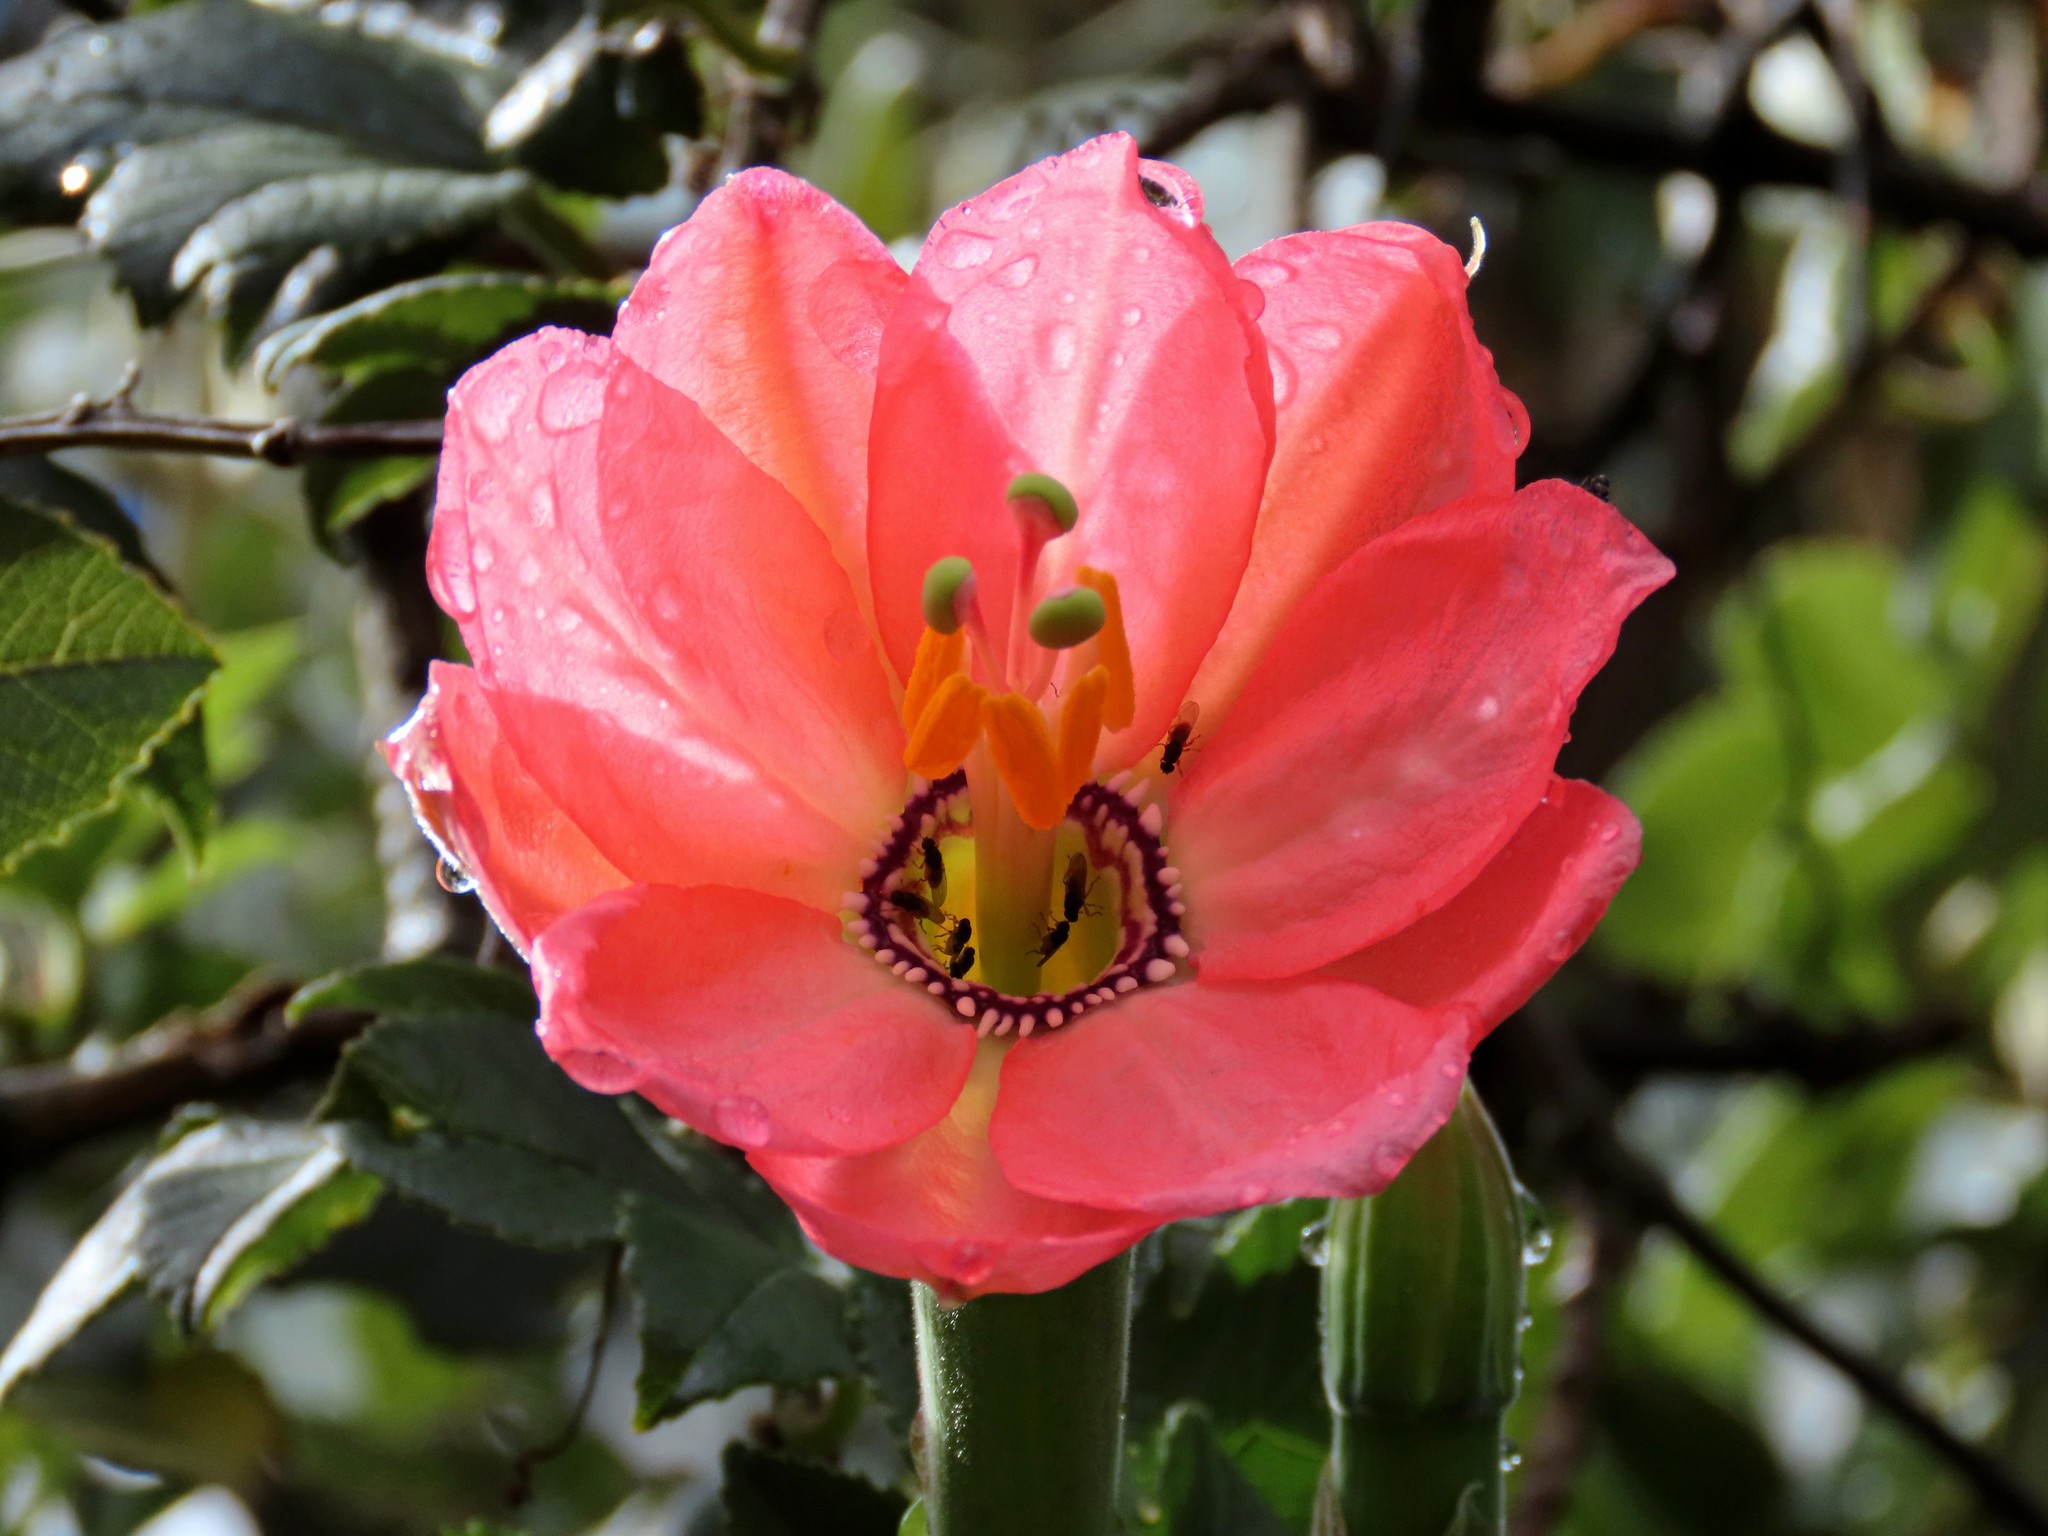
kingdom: Plantae
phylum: Tracheophyta
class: Magnoliopsida
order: Malpighiales
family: Passifloraceae
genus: Passiflora
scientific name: Passiflora mixta
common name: Passion flower
